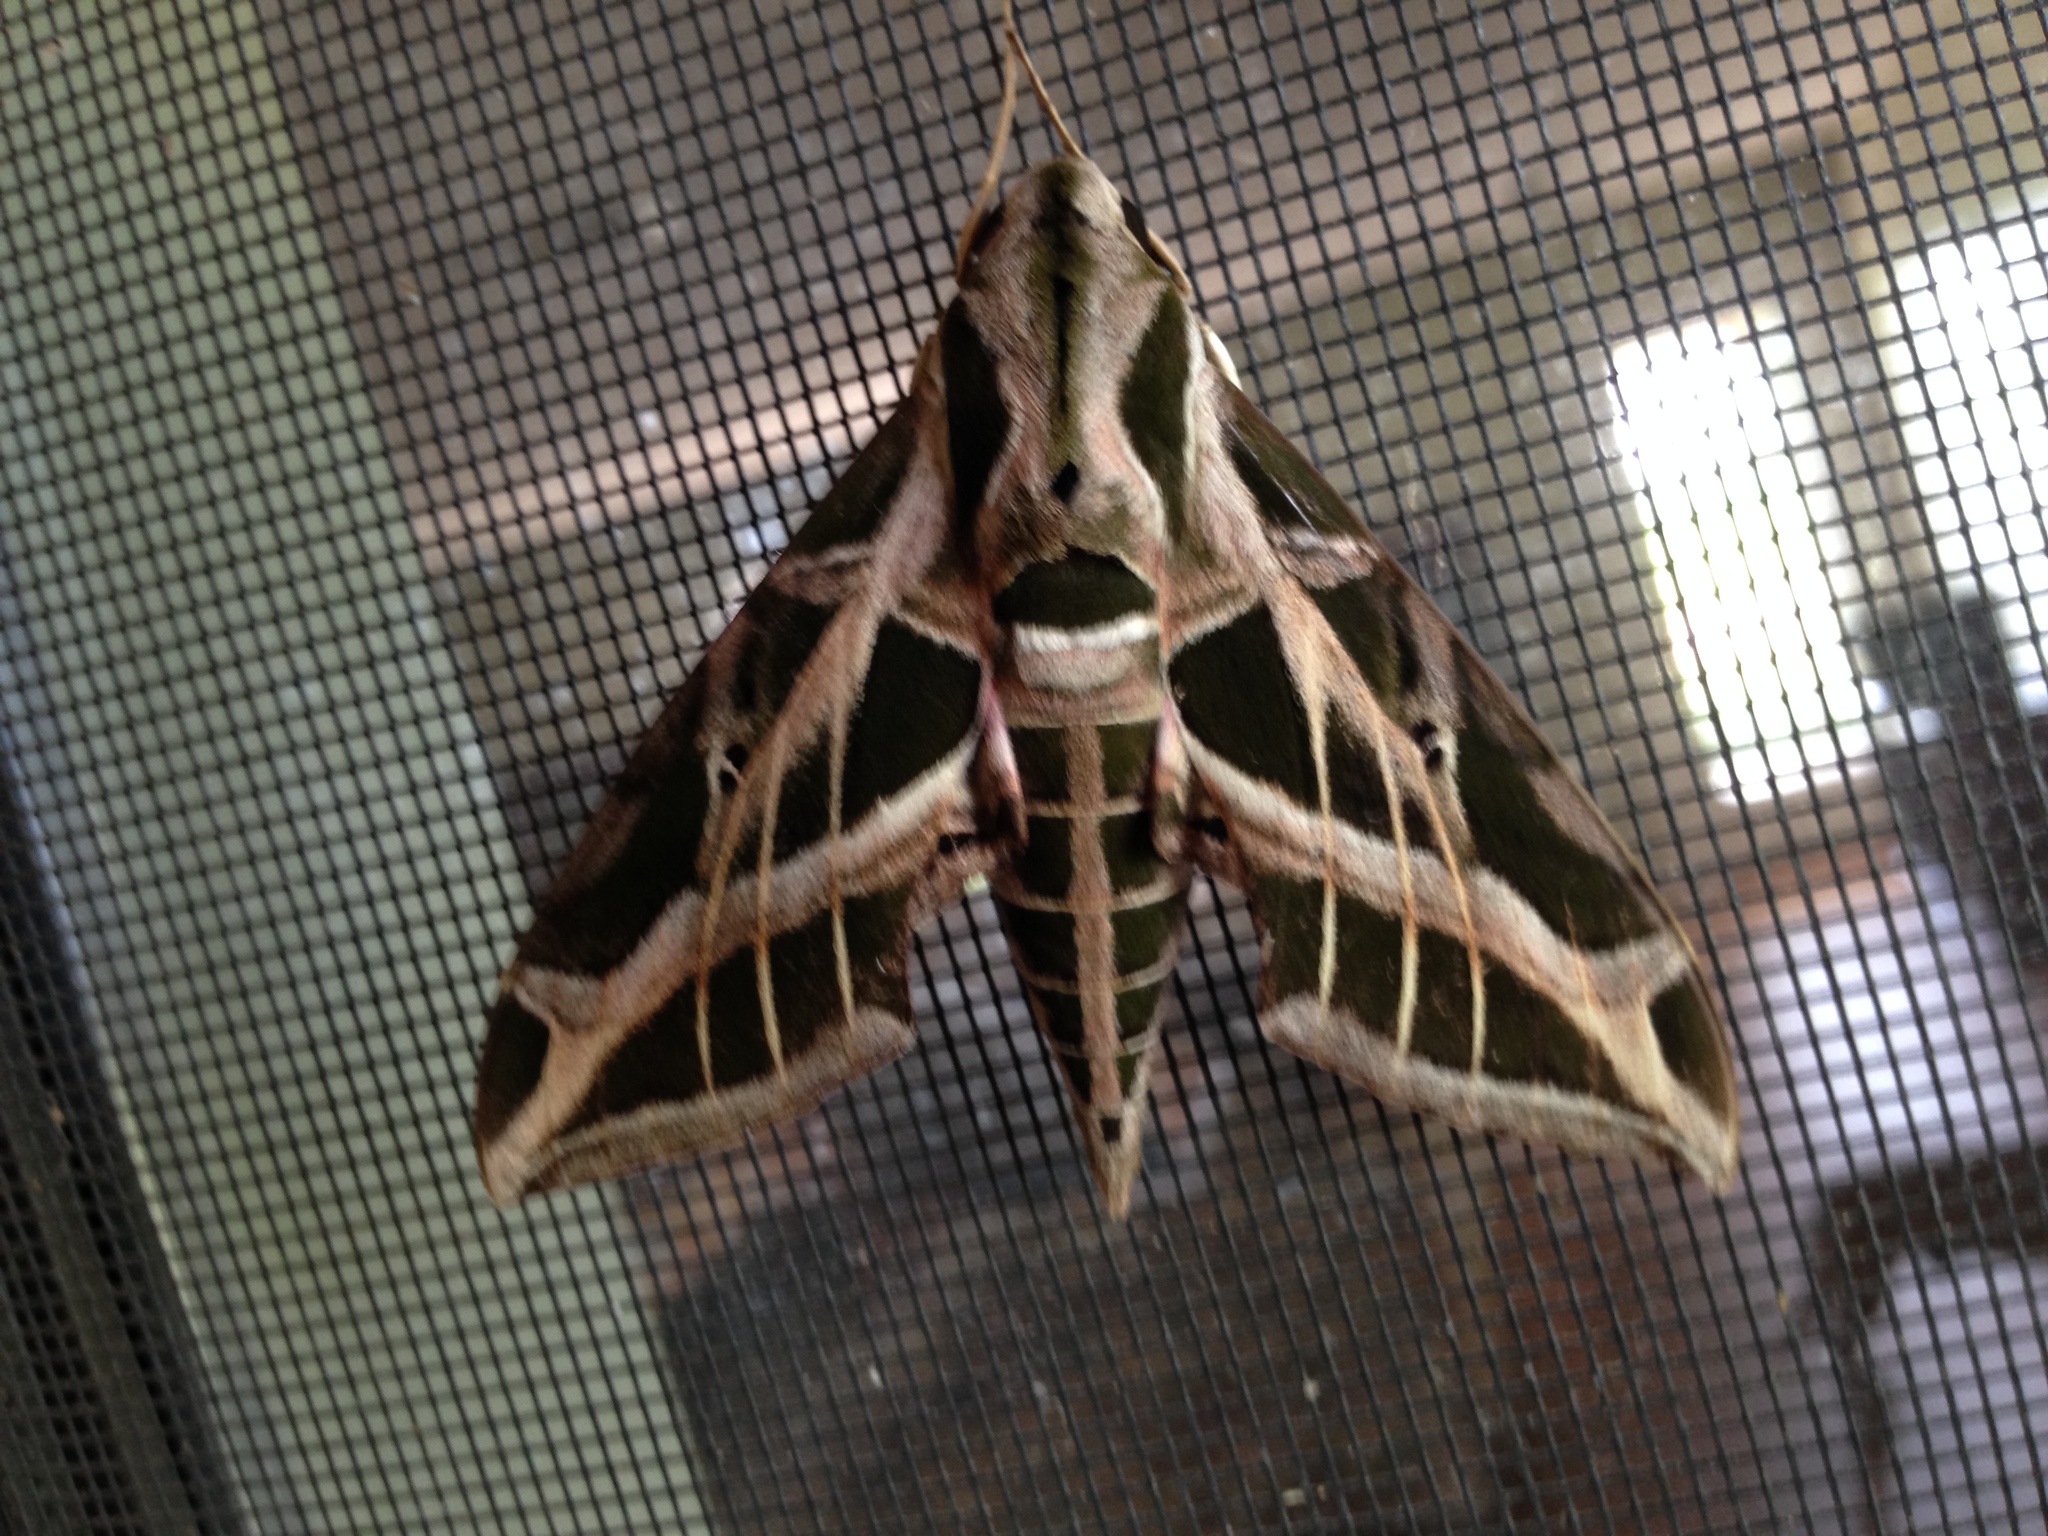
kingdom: Animalia
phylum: Arthropoda
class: Insecta
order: Lepidoptera
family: Sphingidae
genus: Eumorpha
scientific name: Eumorpha vitis
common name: Vine sphinx
